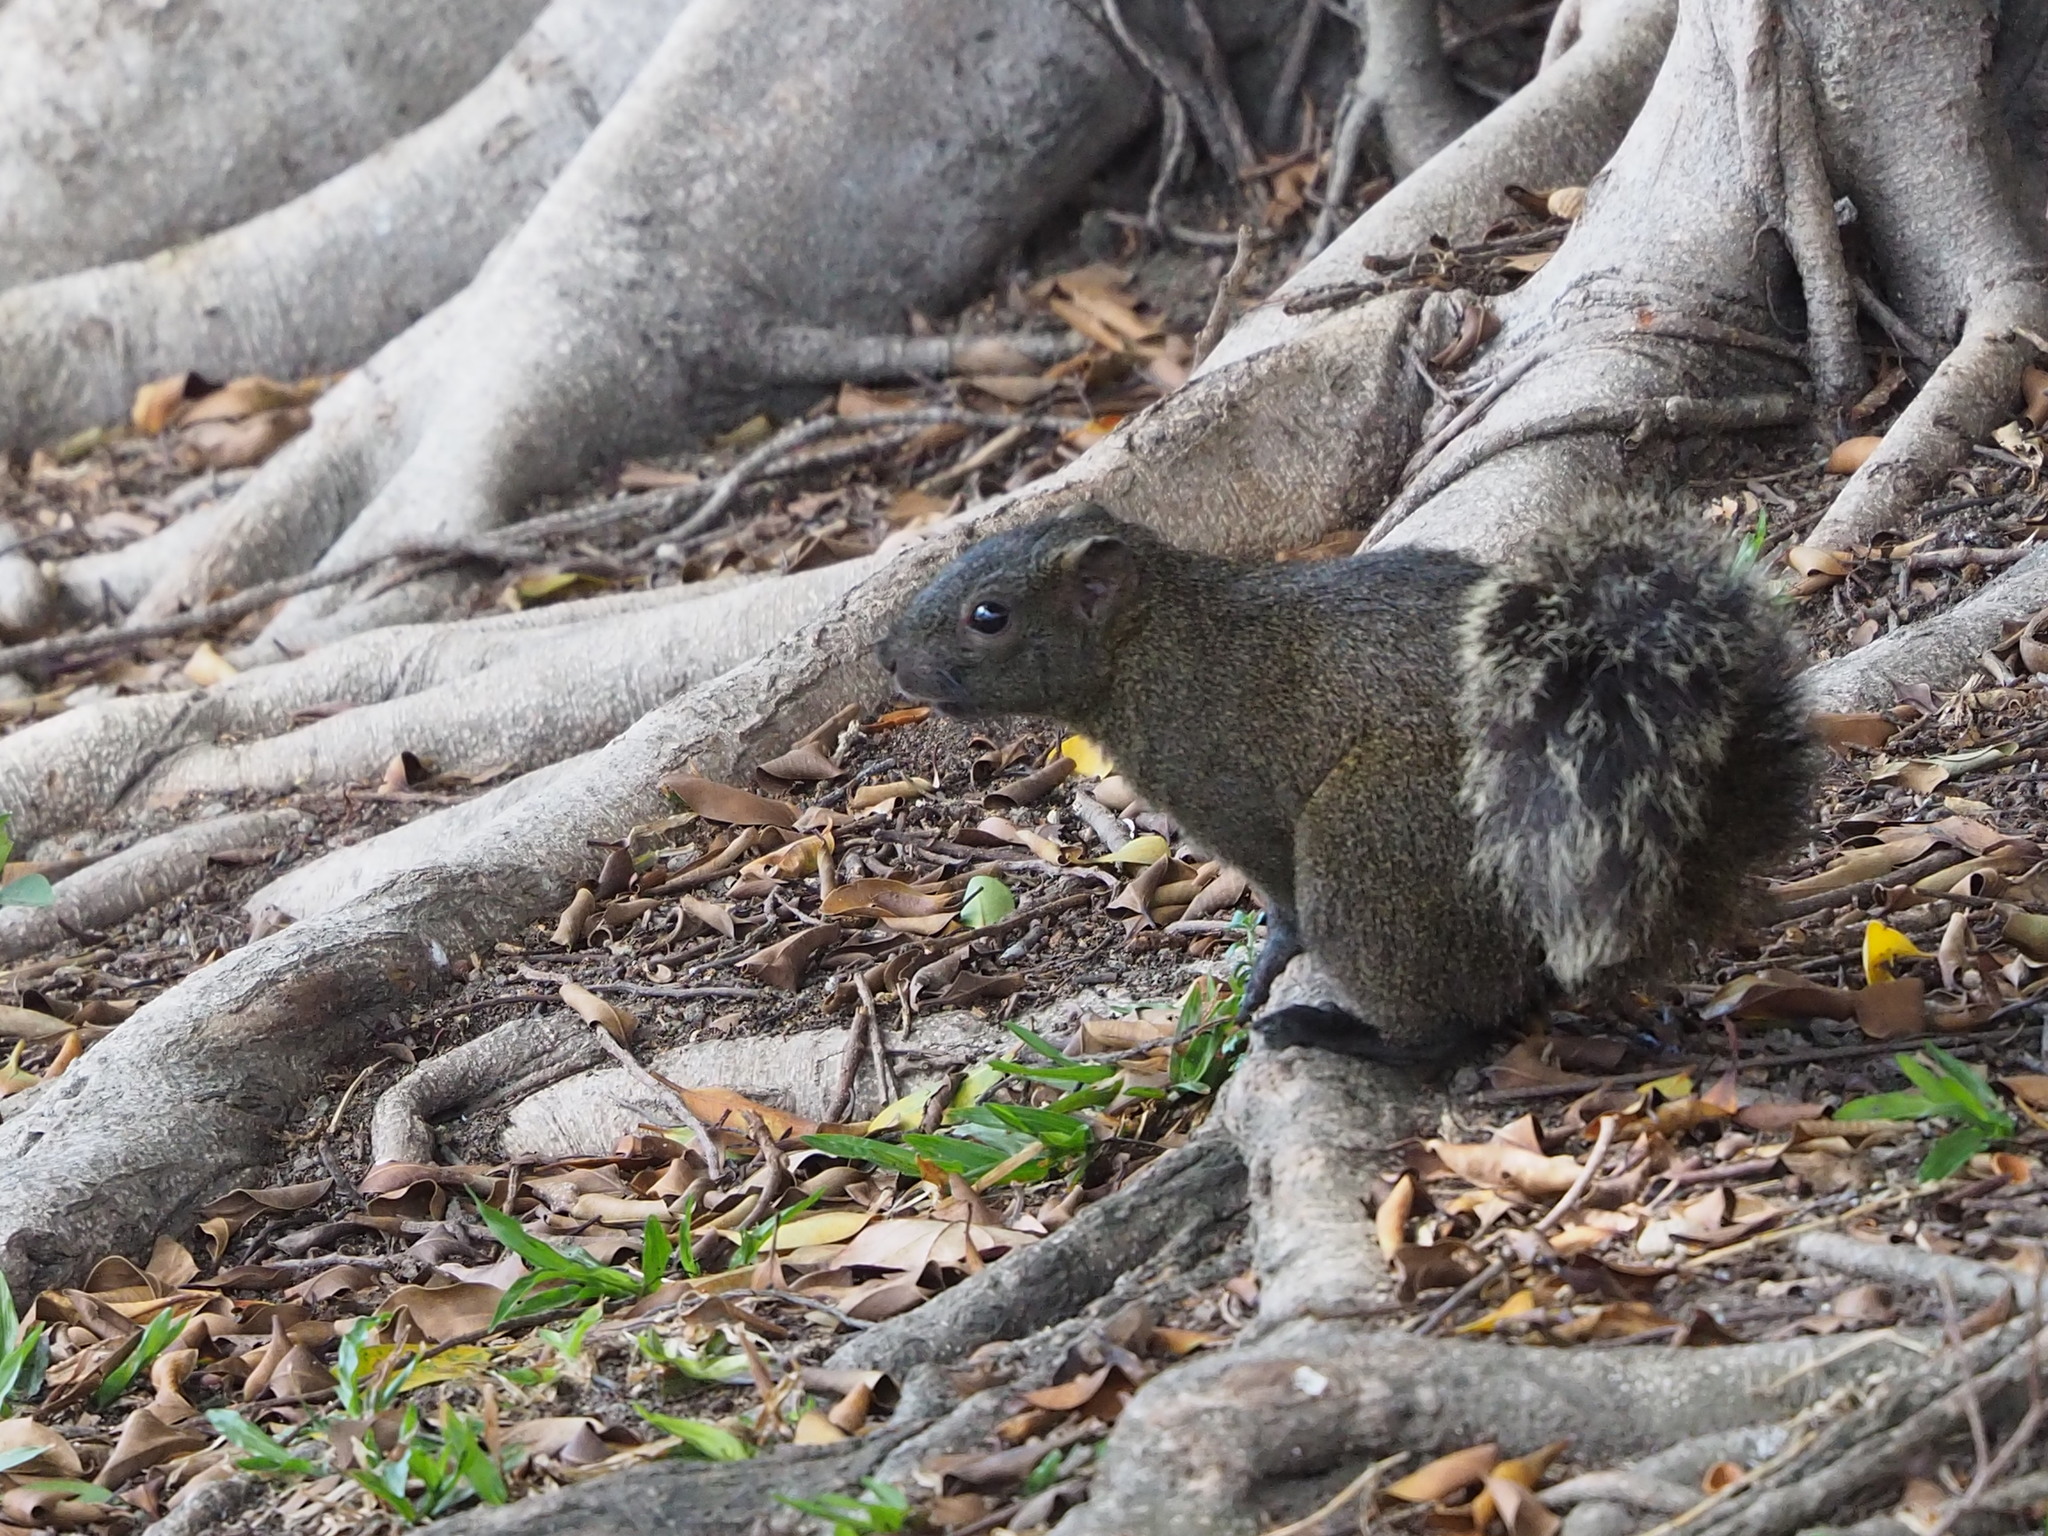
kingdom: Animalia
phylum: Chordata
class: Mammalia
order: Rodentia
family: Sciuridae
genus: Callosciurus
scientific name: Callosciurus erythraeus
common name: Pallas's squirrel
